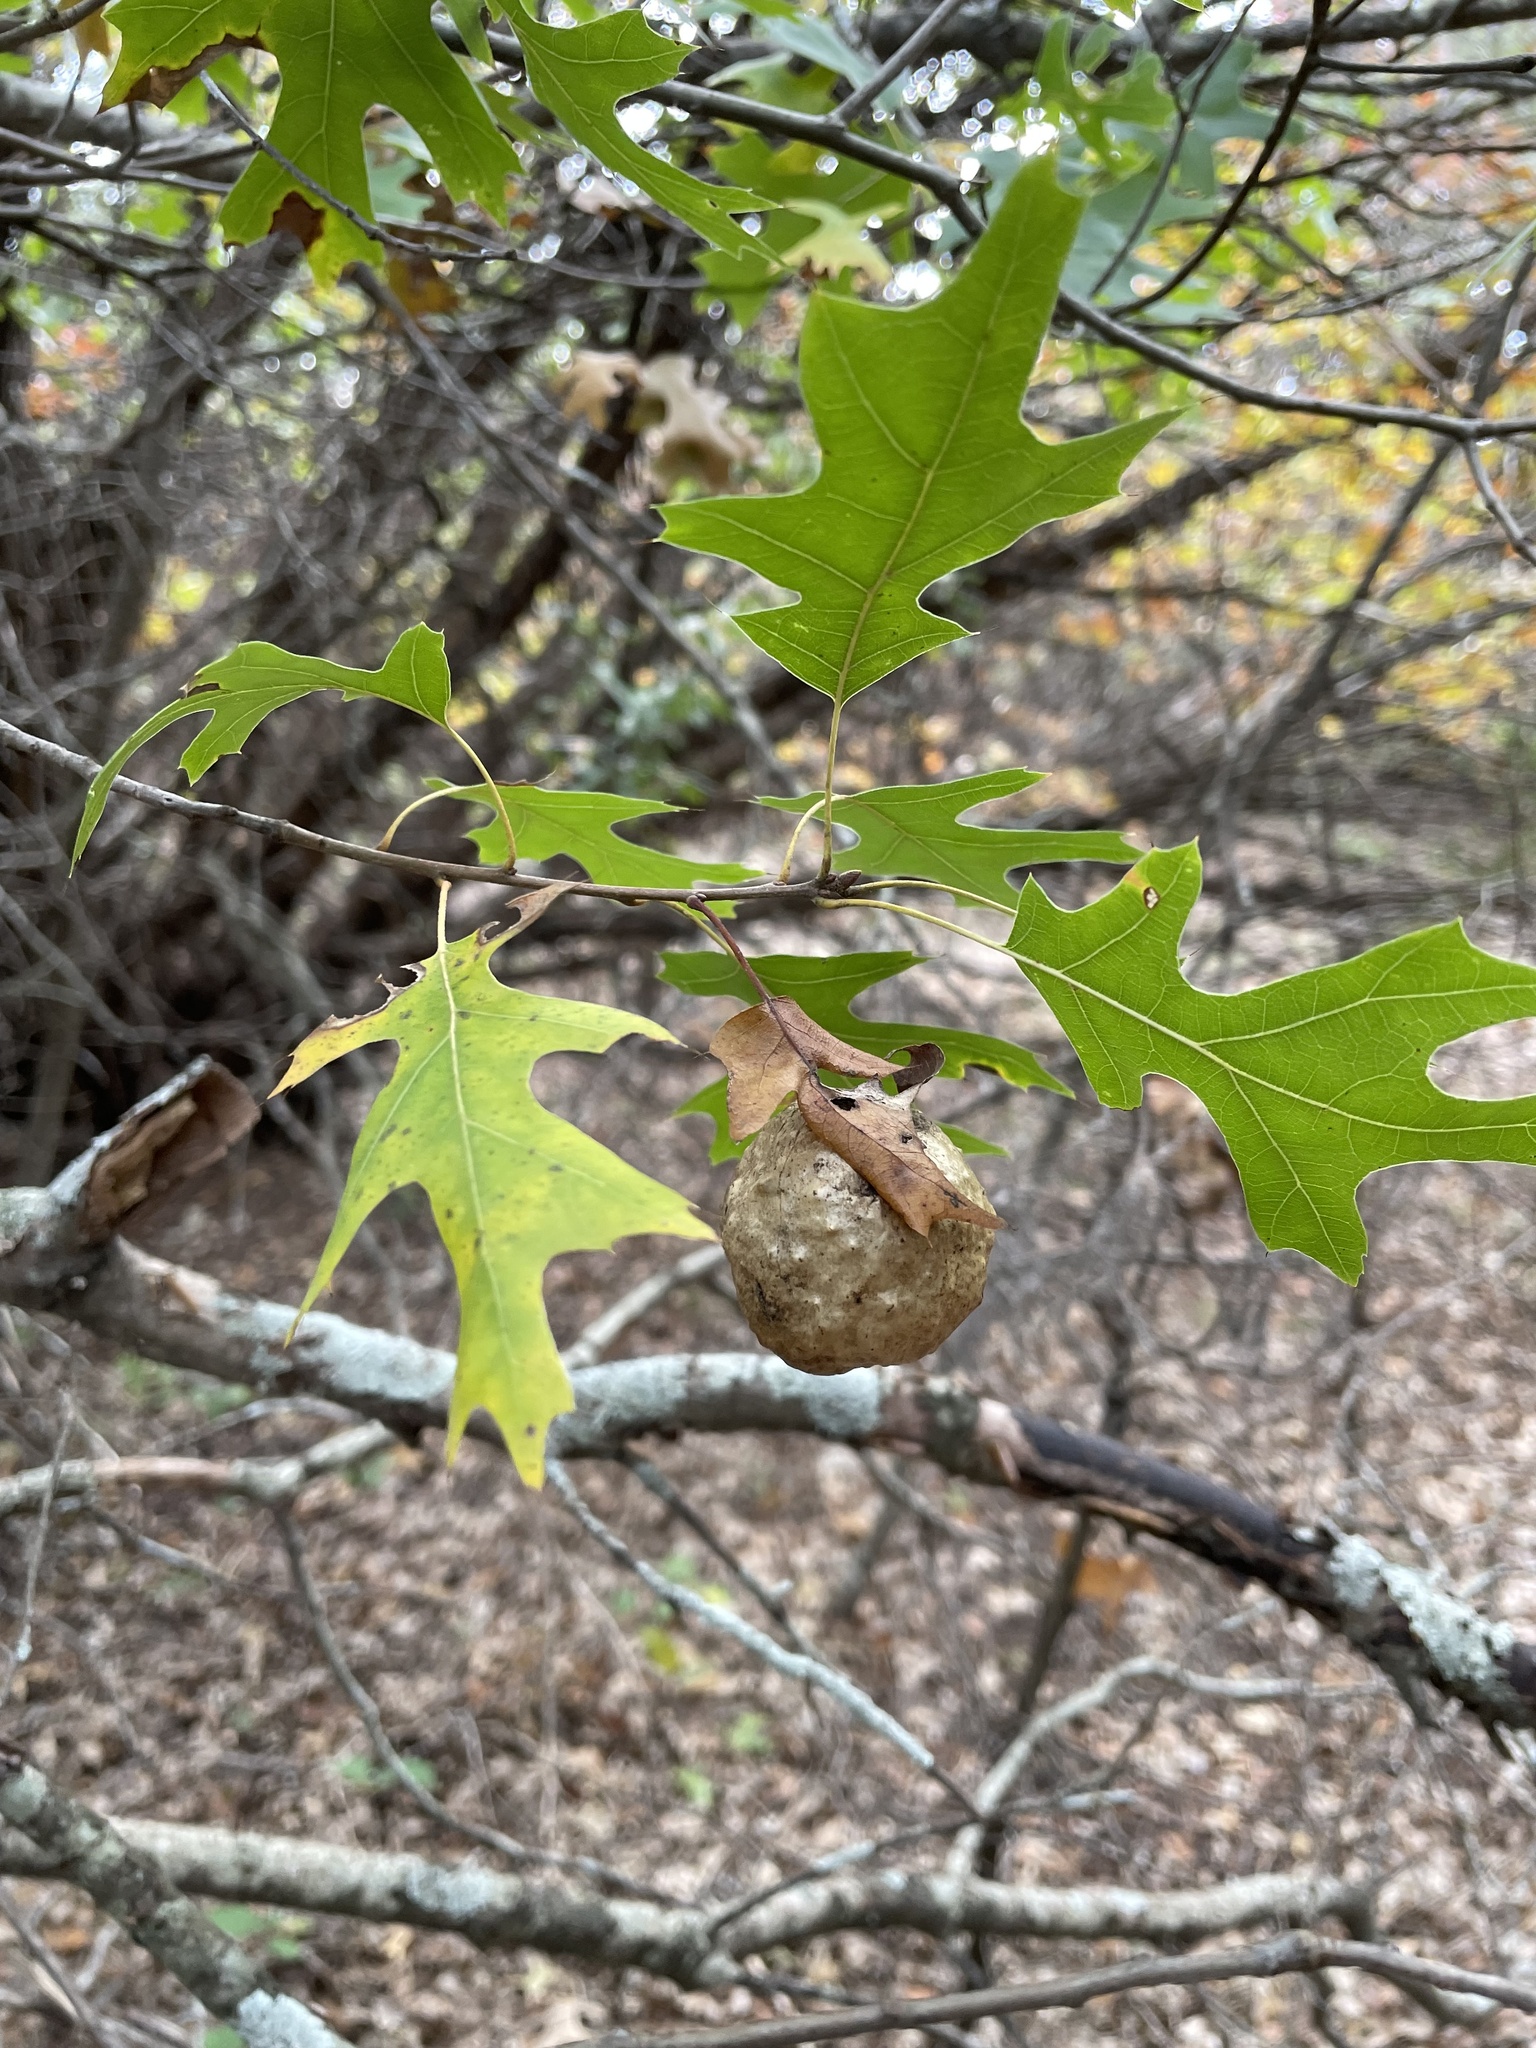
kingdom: Animalia
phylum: Arthropoda
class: Insecta
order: Hymenoptera
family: Cynipidae
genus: Amphibolips
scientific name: Amphibolips
